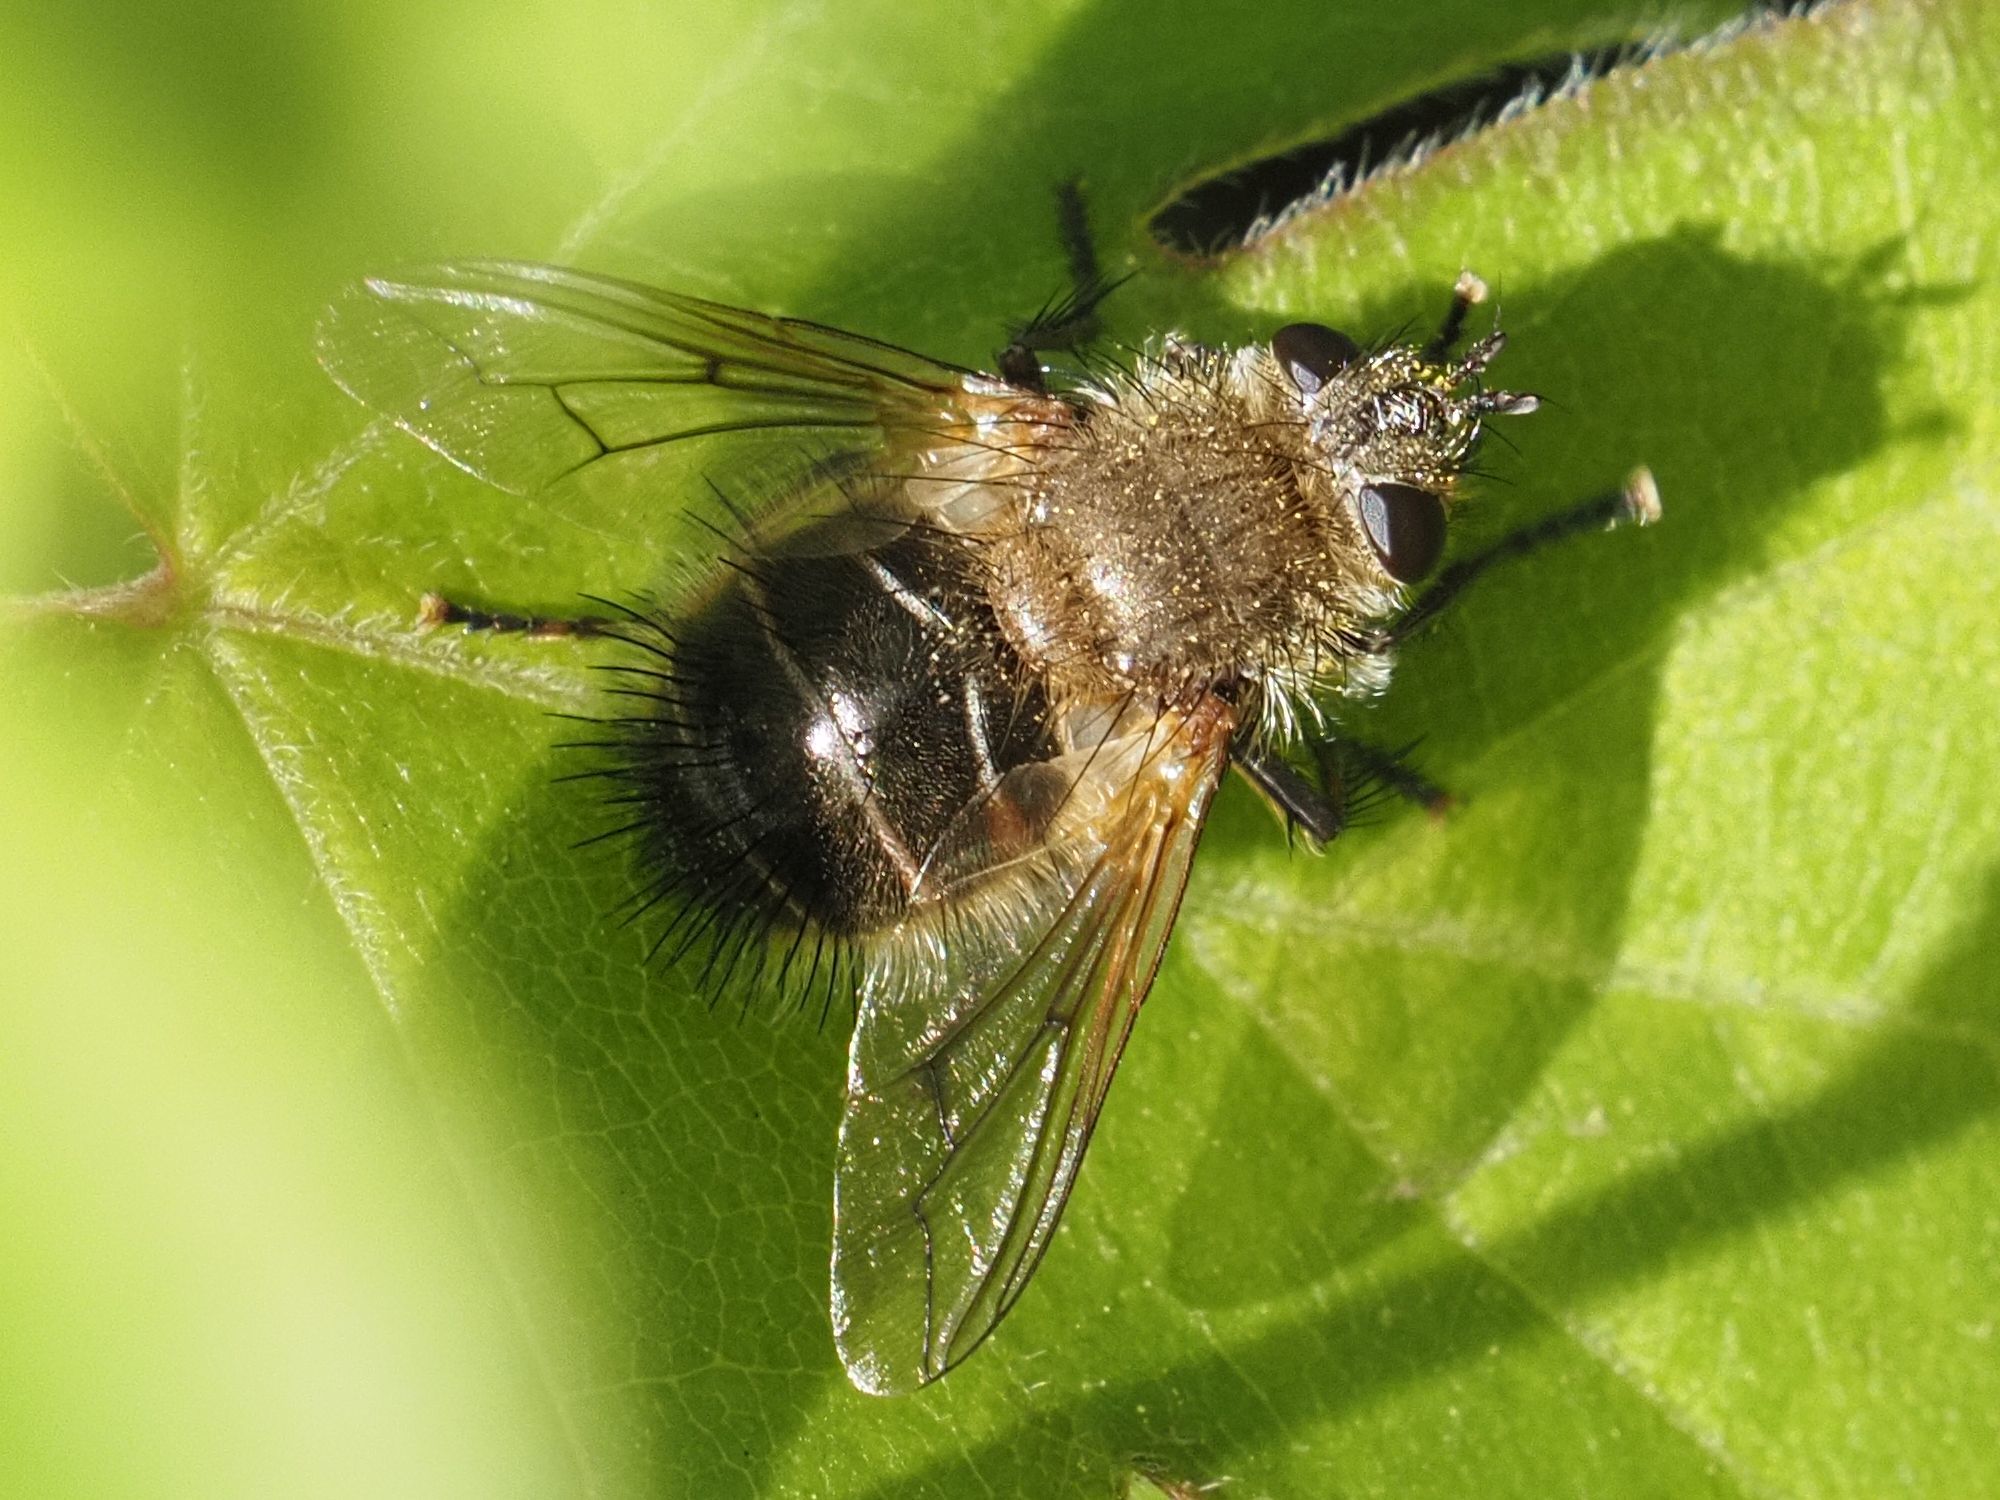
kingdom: Animalia
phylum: Arthropoda
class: Insecta
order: Diptera
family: Tachinidae
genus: Tachina
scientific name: Tachina ursina
